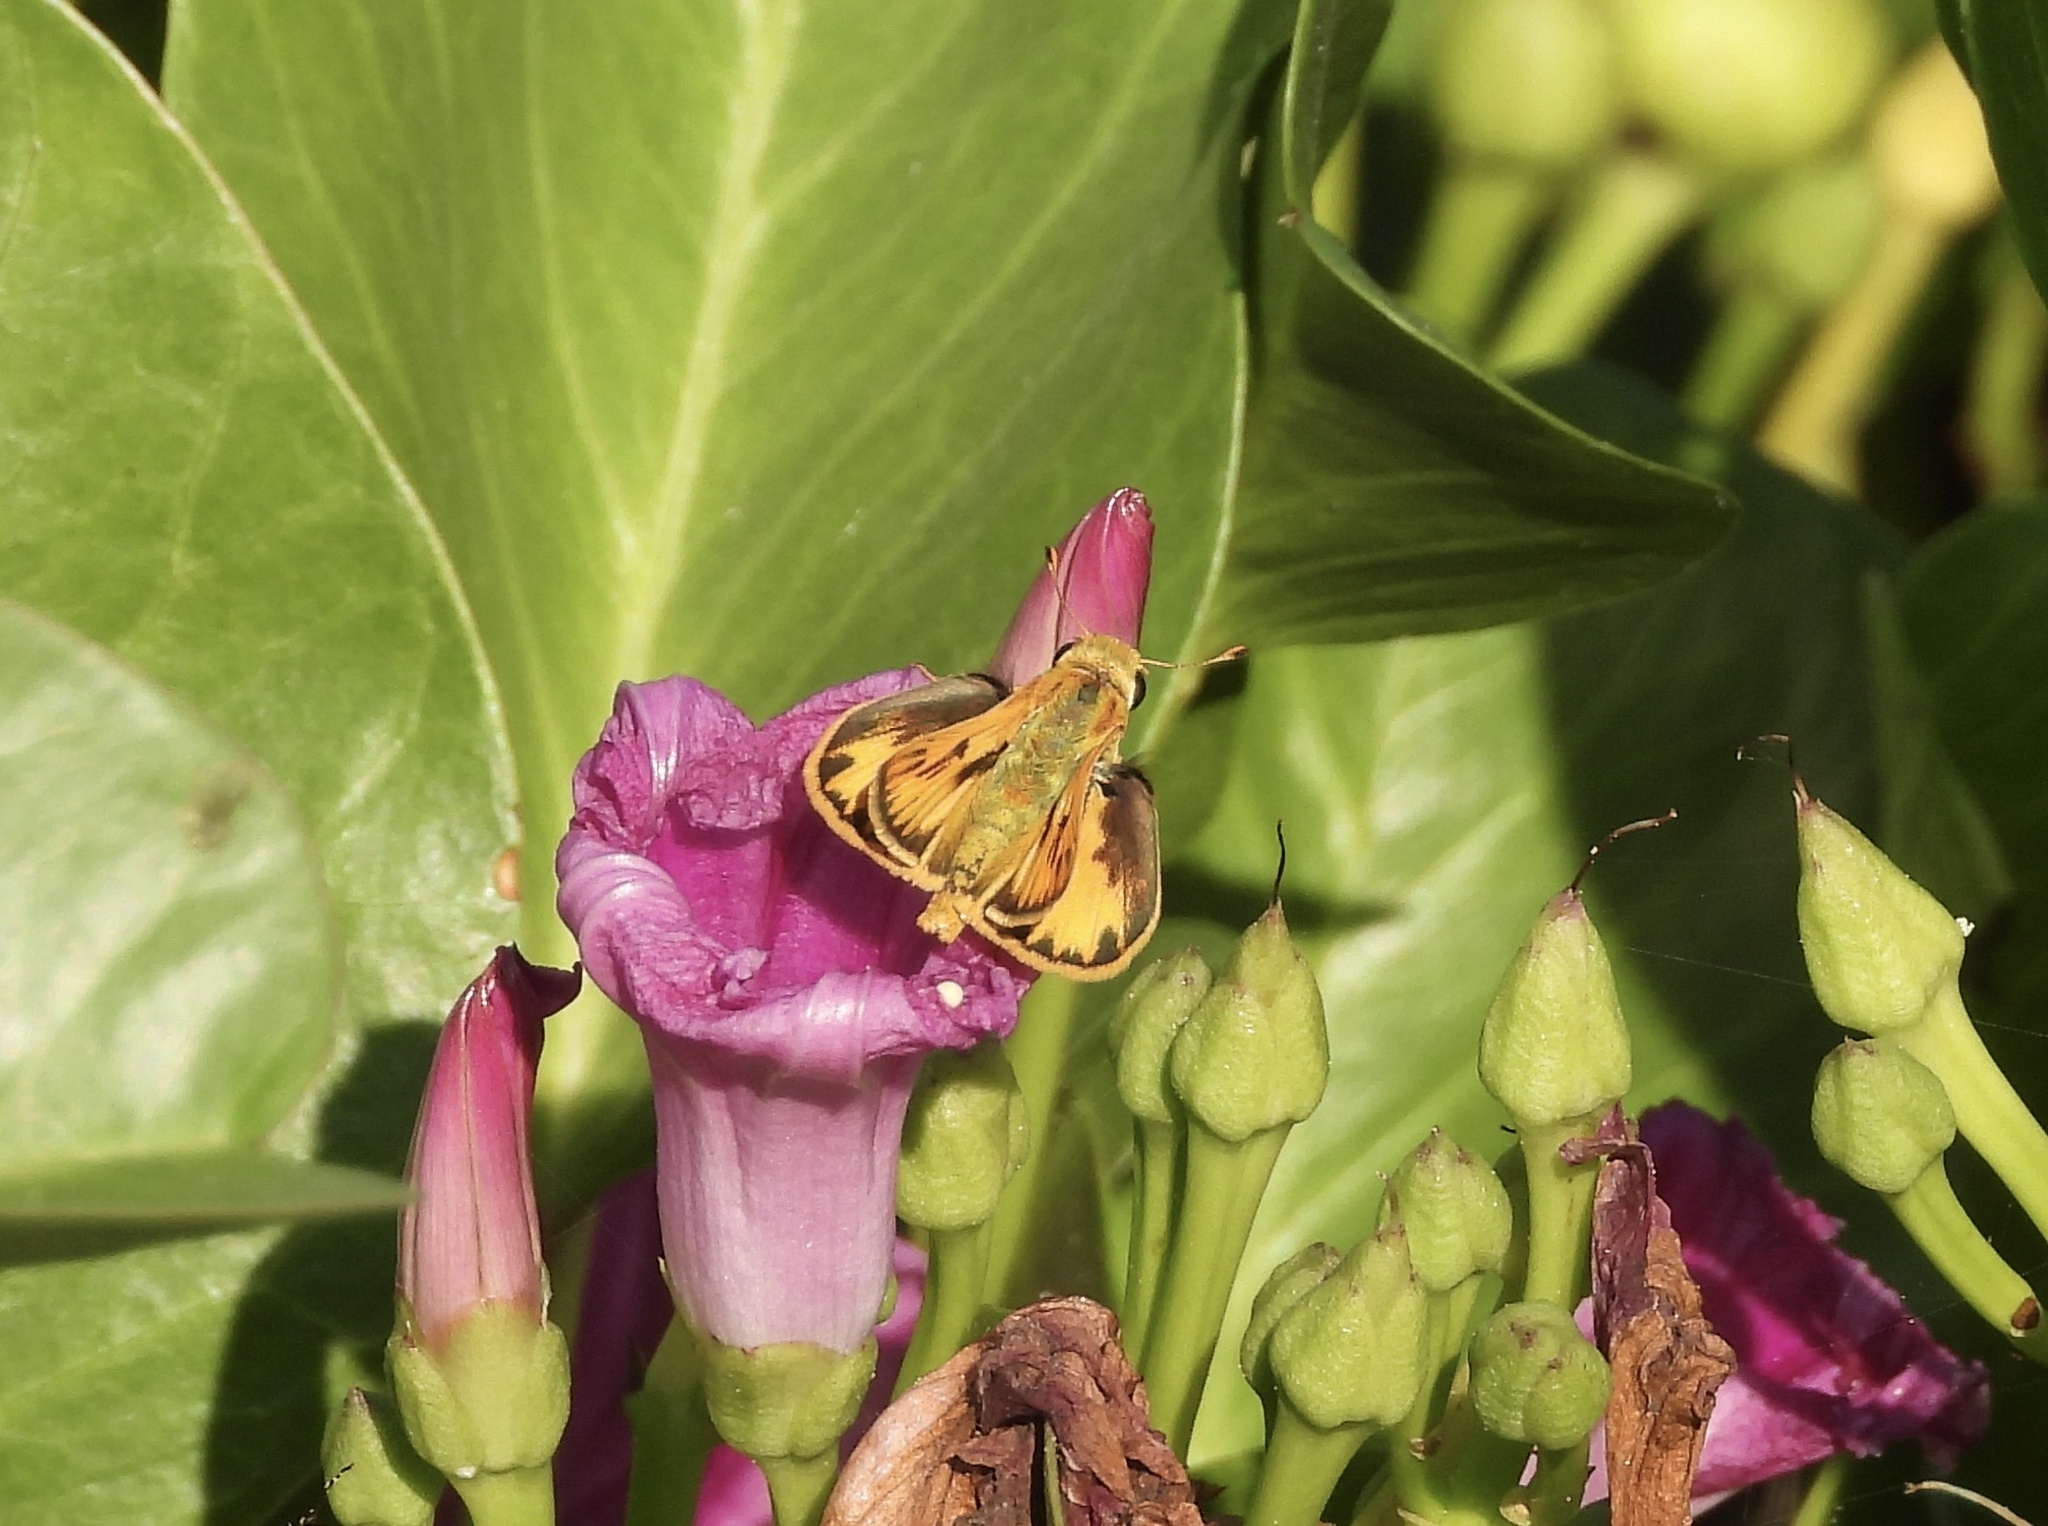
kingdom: Animalia
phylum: Arthropoda
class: Insecta
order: Lepidoptera
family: Hesperiidae
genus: Hylephila
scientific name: Hylephila phyleus
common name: Fiery skipper
